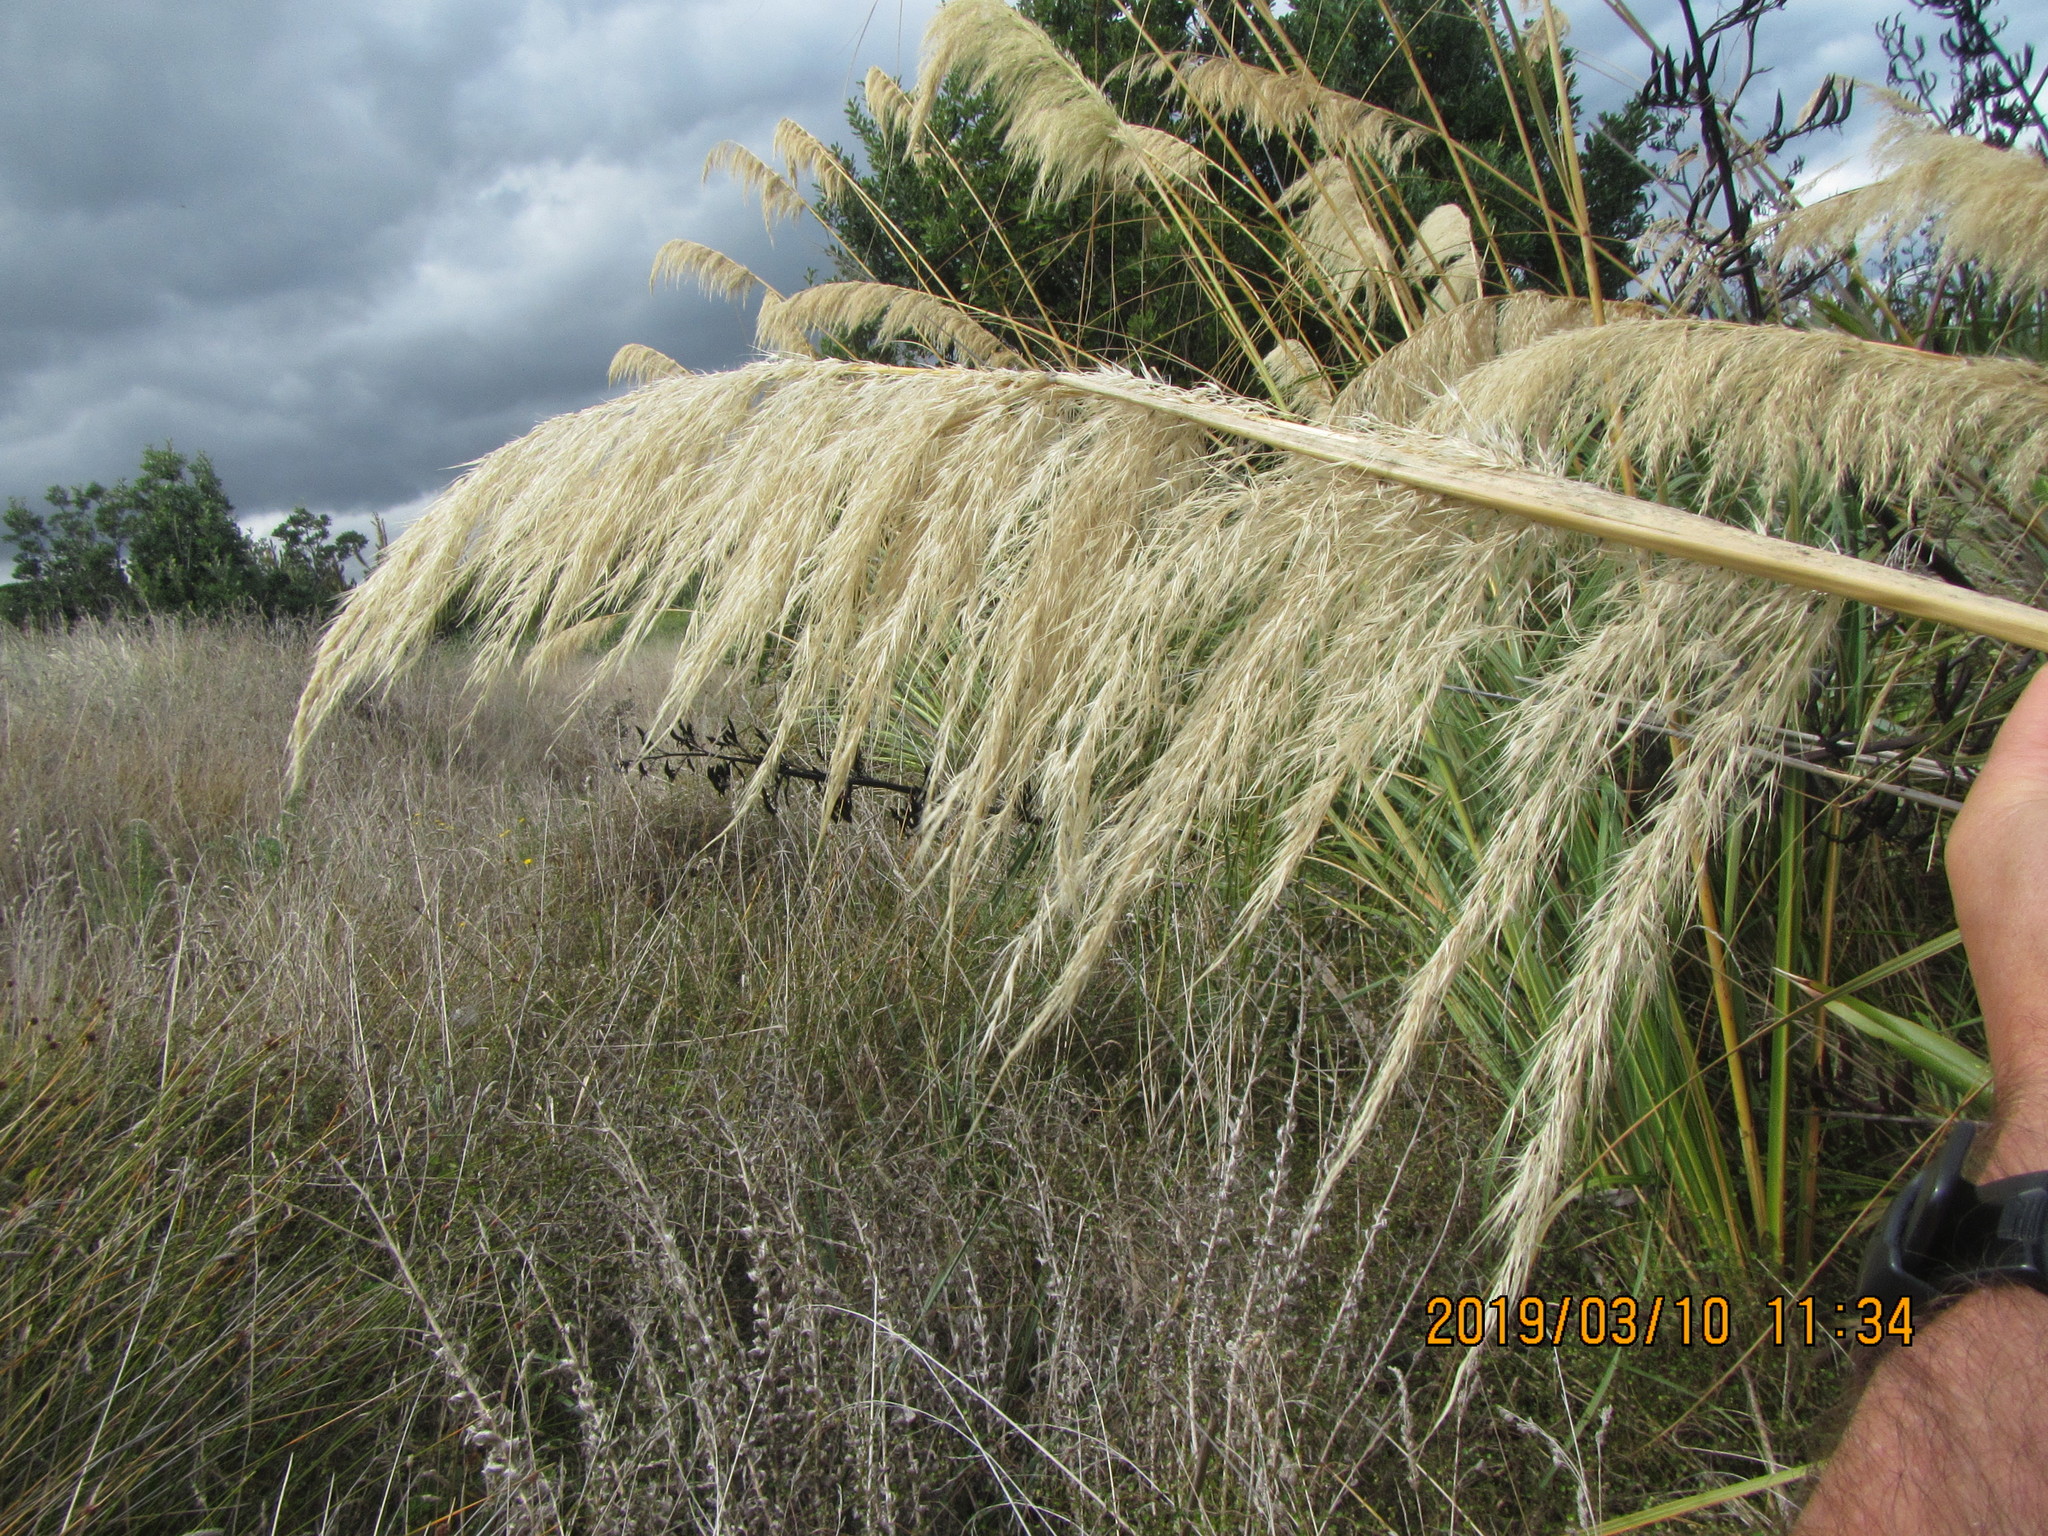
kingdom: Plantae
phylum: Tracheophyta
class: Liliopsida
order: Poales
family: Poaceae
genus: Austroderia
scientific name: Austroderia toetoe
